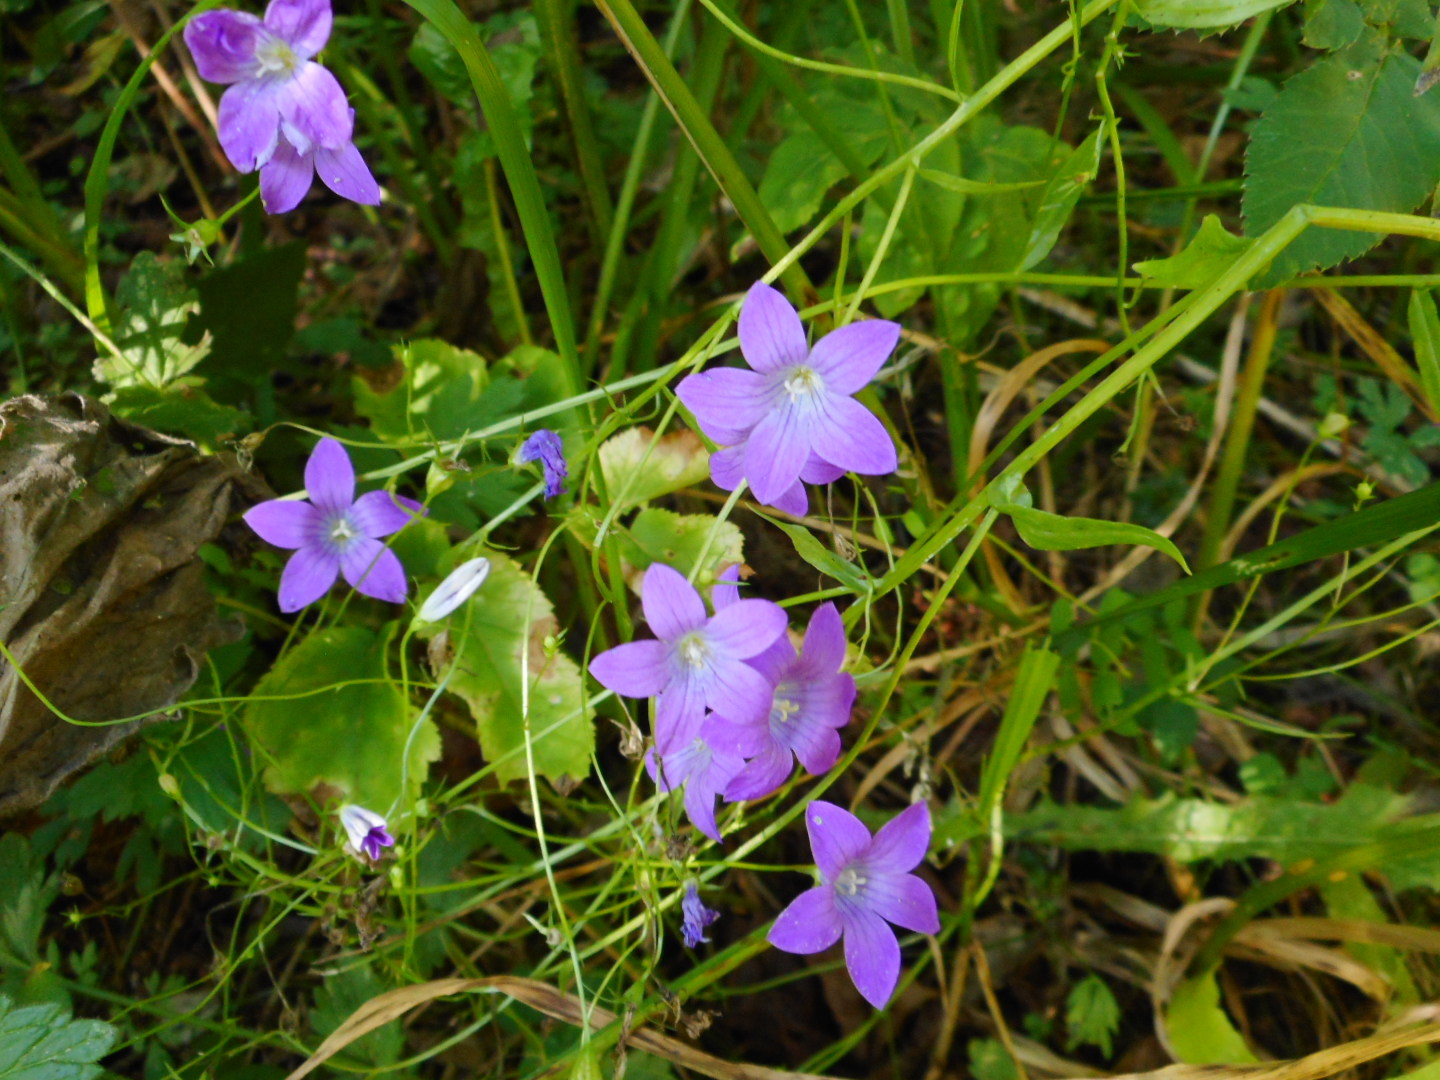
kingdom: Plantae
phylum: Tracheophyta
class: Magnoliopsida
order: Asterales
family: Campanulaceae
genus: Campanula
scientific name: Campanula patula
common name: Spreading bellflower
